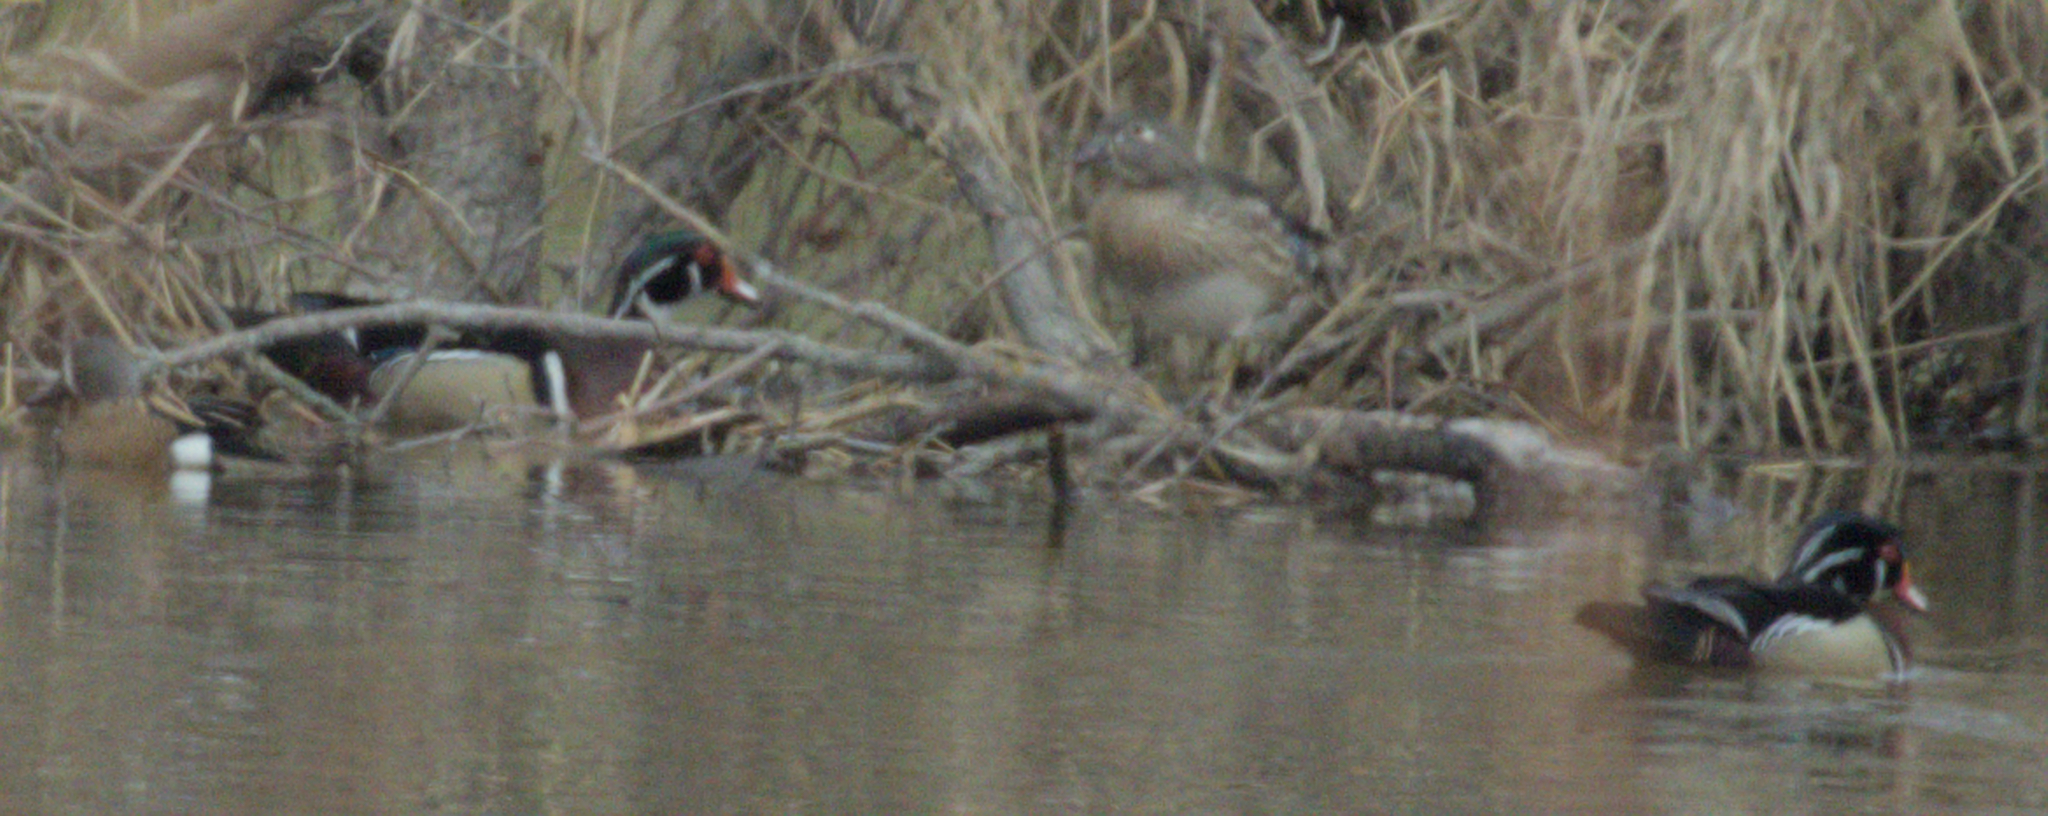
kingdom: Animalia
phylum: Chordata
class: Aves
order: Anseriformes
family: Anatidae
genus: Aix
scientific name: Aix sponsa
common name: Wood duck
